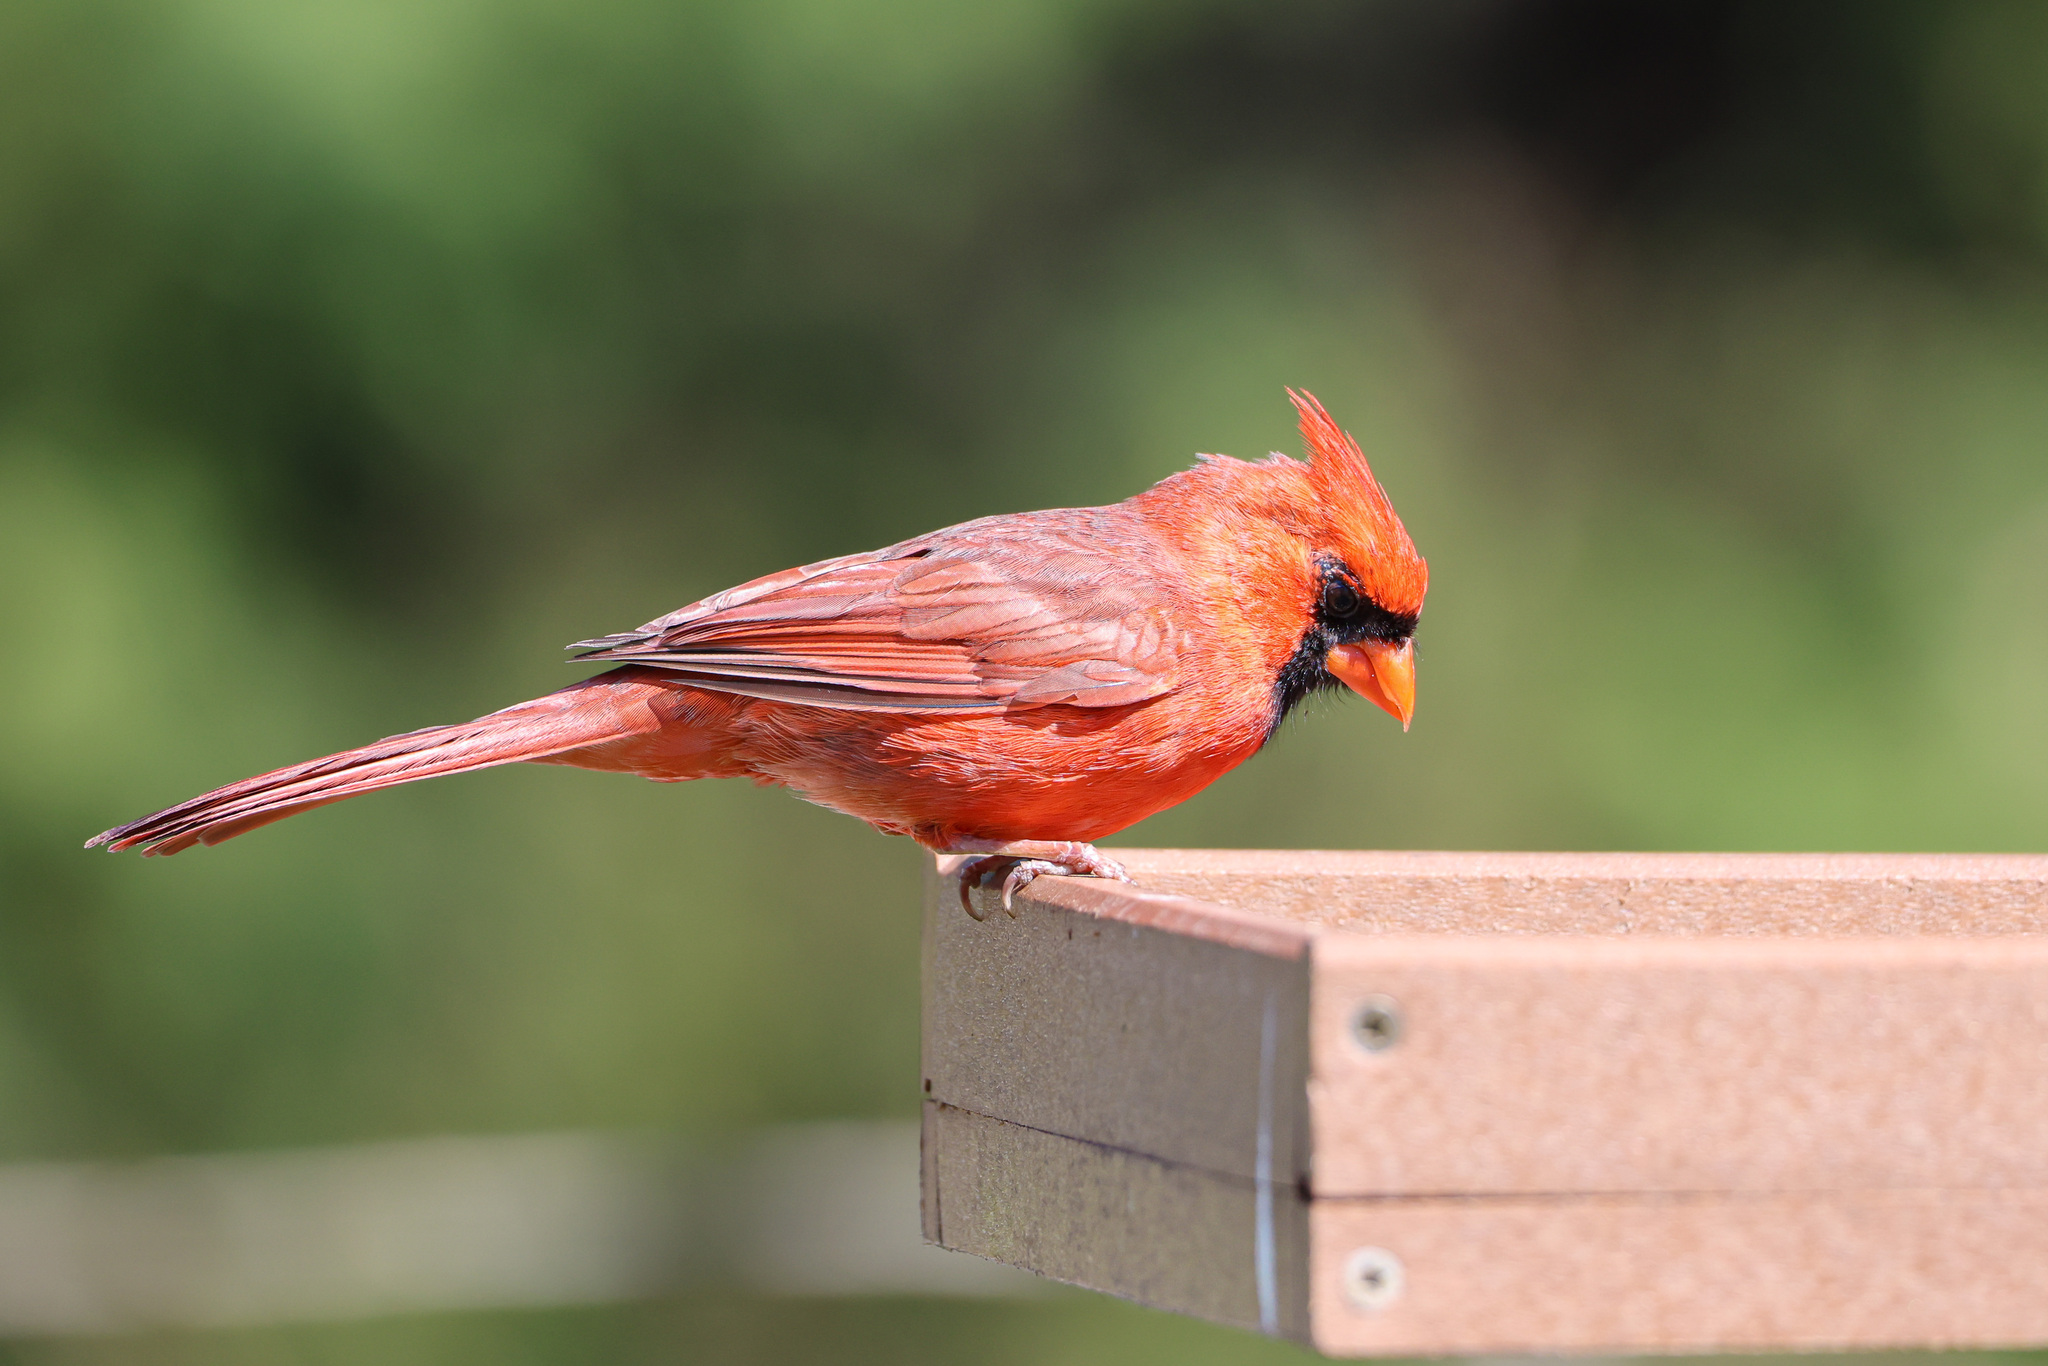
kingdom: Animalia
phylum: Chordata
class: Aves
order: Passeriformes
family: Cardinalidae
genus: Cardinalis
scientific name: Cardinalis cardinalis
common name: Northern cardinal
